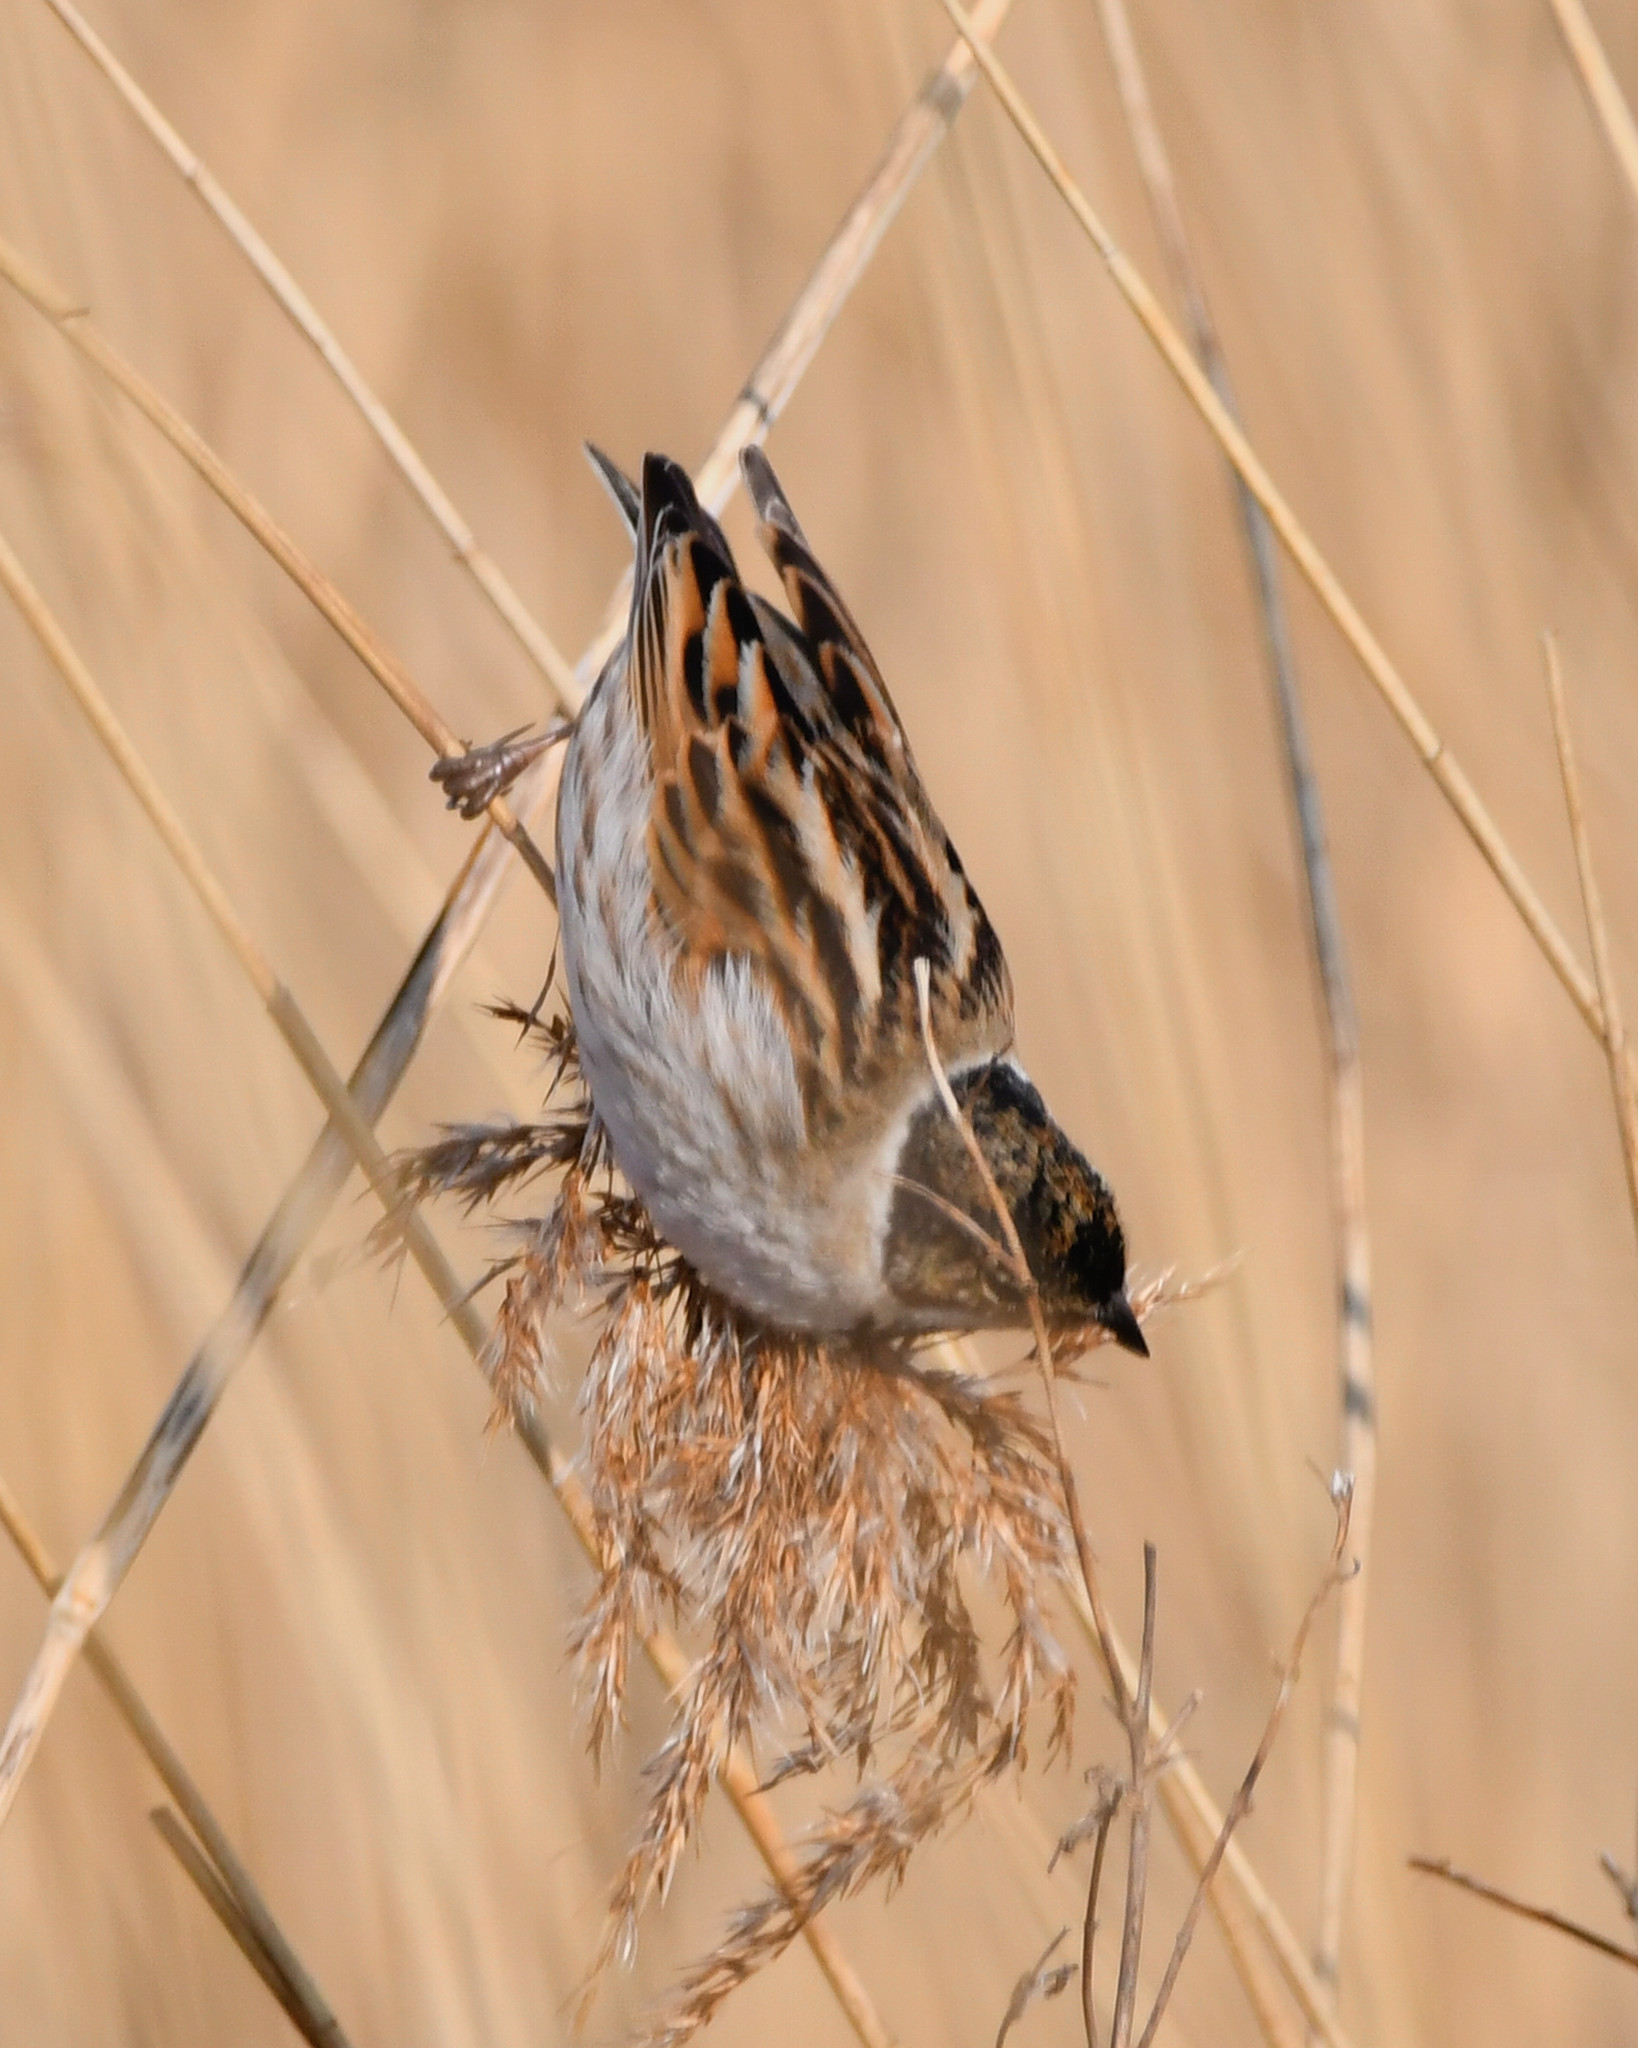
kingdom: Animalia
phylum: Chordata
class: Aves
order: Passeriformes
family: Emberizidae
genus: Emberiza
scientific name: Emberiza schoeniclus
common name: Reed bunting
